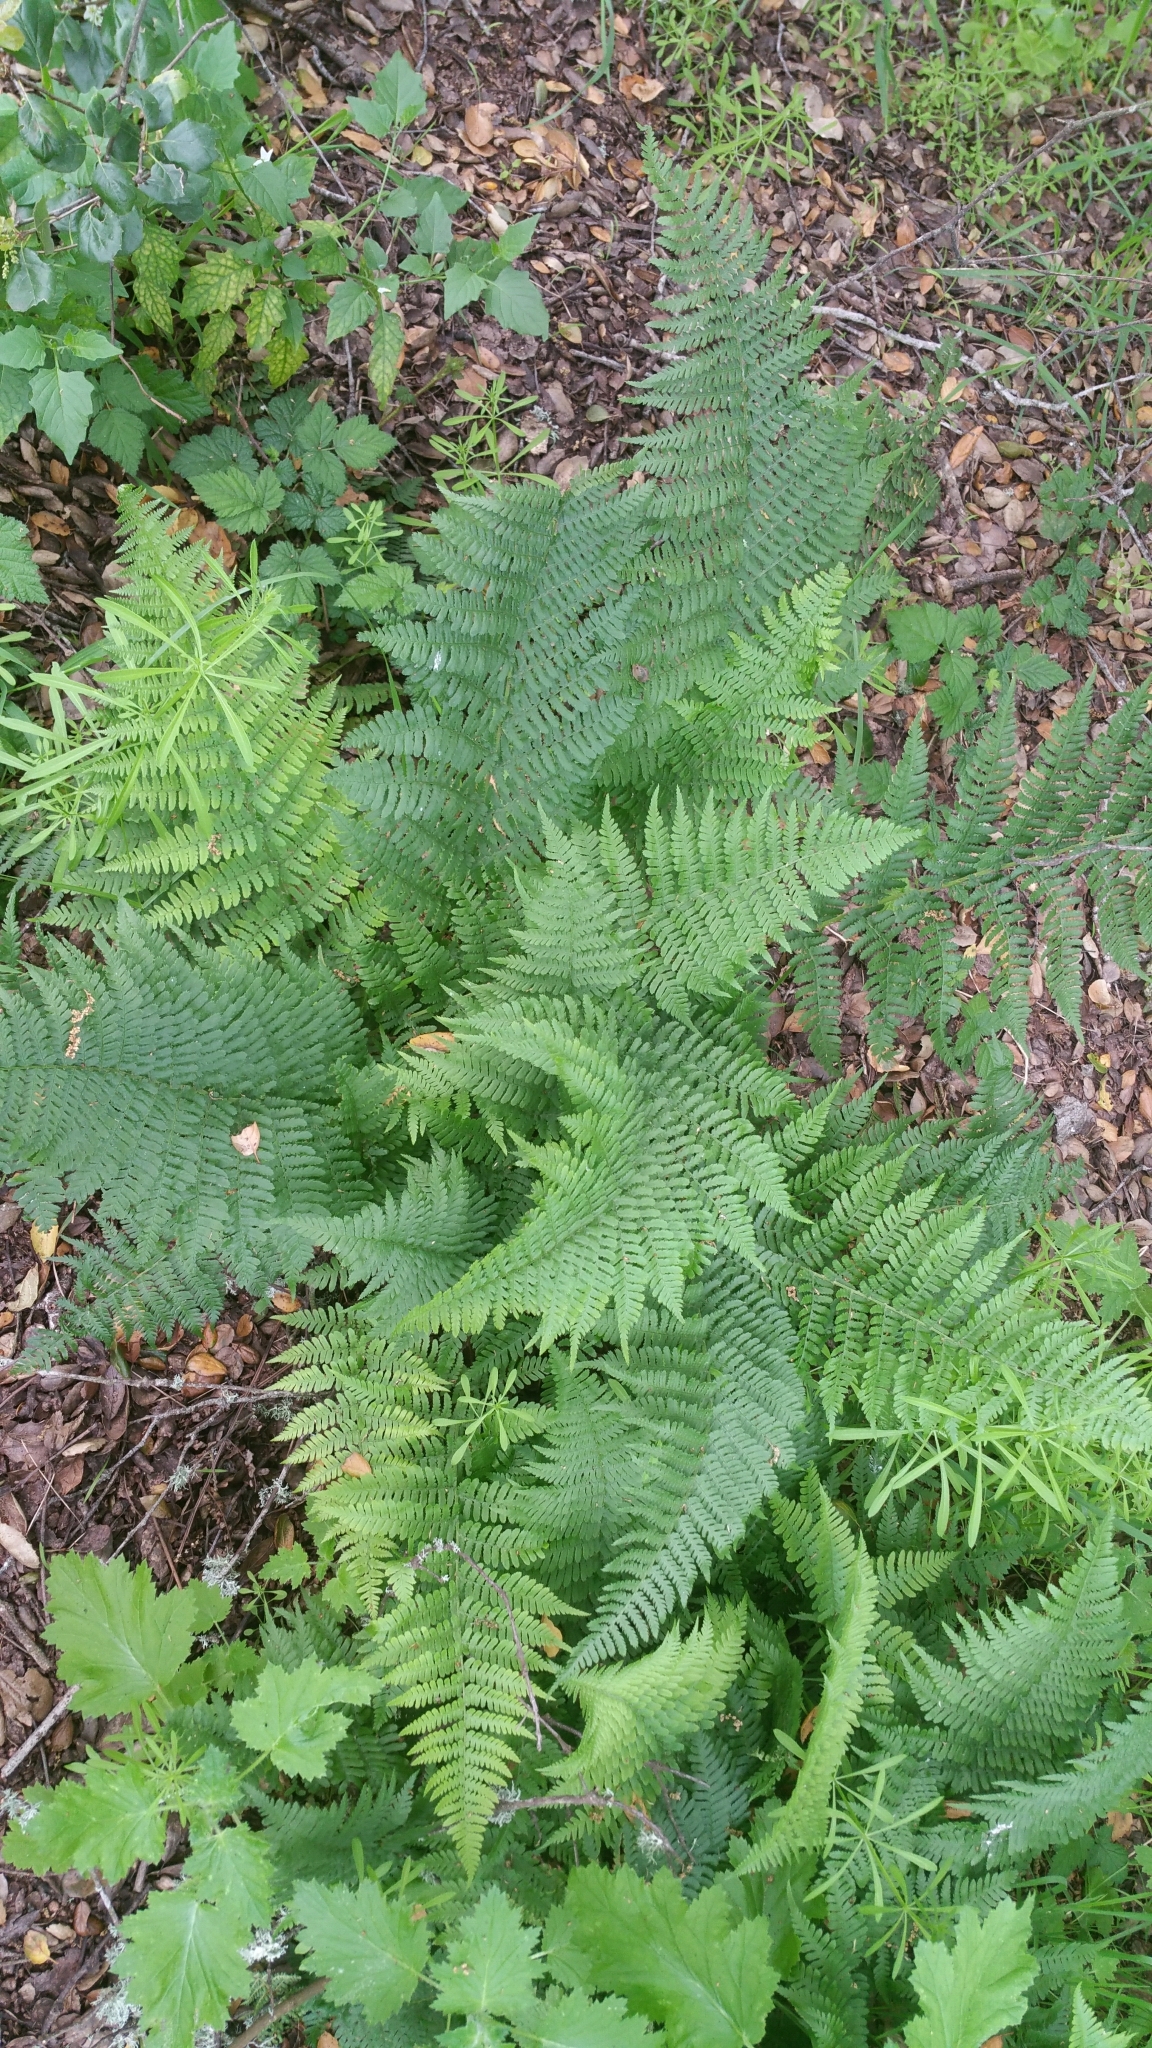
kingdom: Plantae
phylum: Tracheophyta
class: Polypodiopsida
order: Polypodiales
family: Dryopteridaceae
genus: Dryopteris
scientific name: Dryopteris arguta
